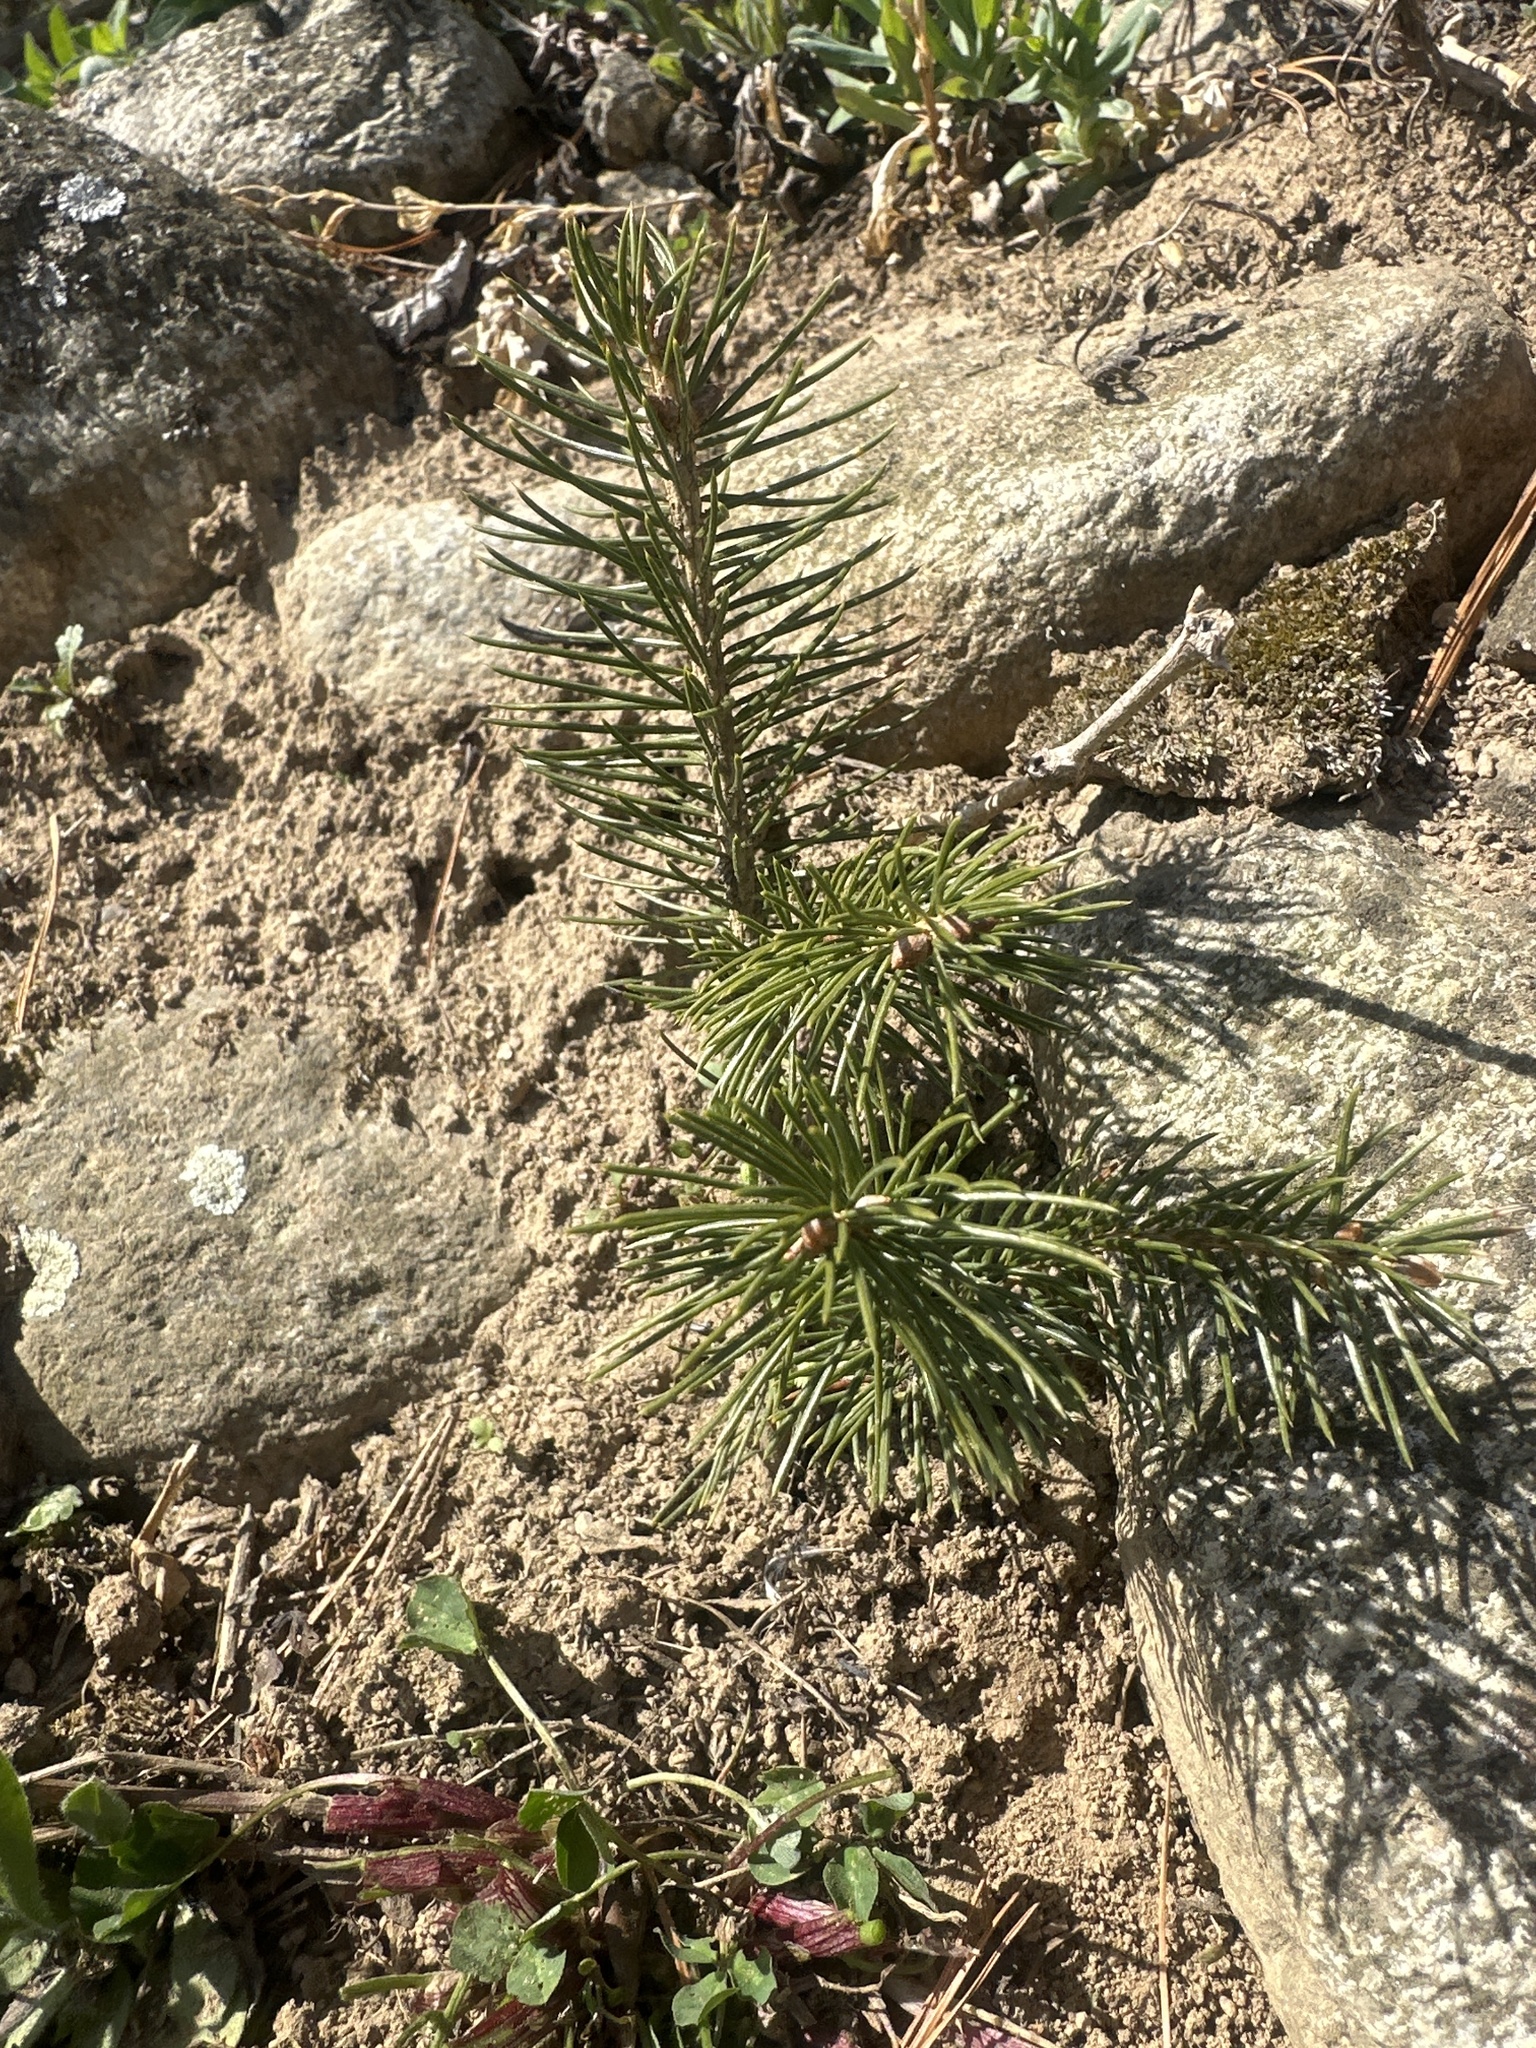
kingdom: Plantae
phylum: Tracheophyta
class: Pinopsida
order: Pinales
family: Pinaceae
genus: Picea
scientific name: Picea abies
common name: Norway spruce
